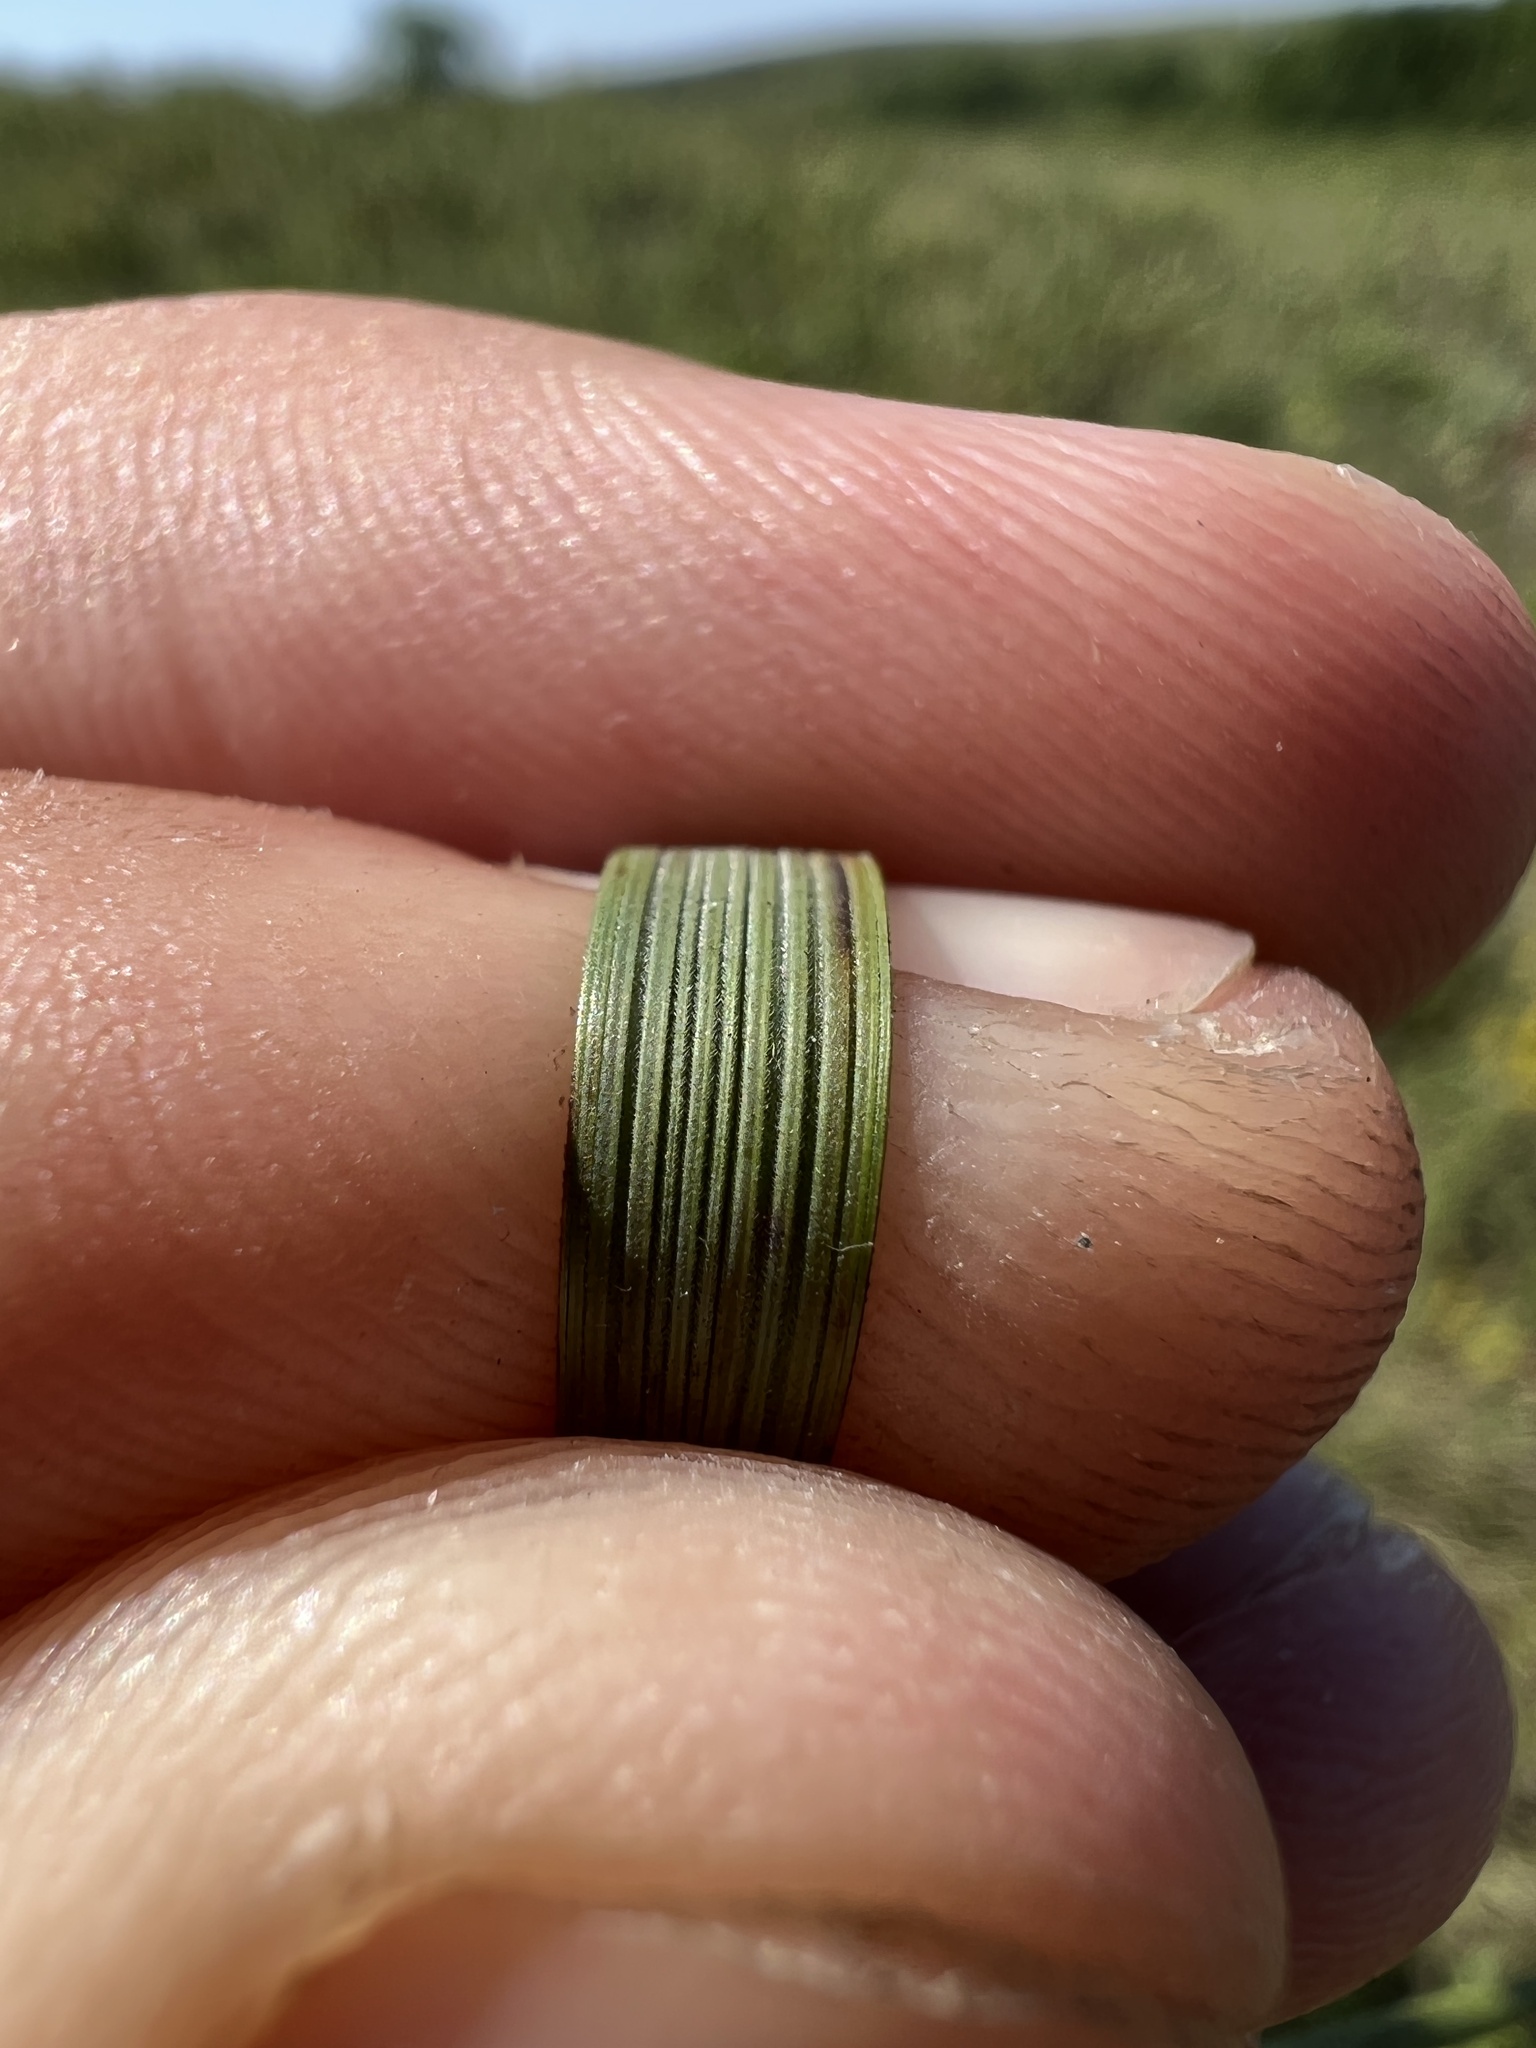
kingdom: Plantae
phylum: Tracheophyta
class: Liliopsida
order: Poales
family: Poaceae
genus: Hesperostipa
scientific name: Hesperostipa spartea
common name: Porcupine grass
